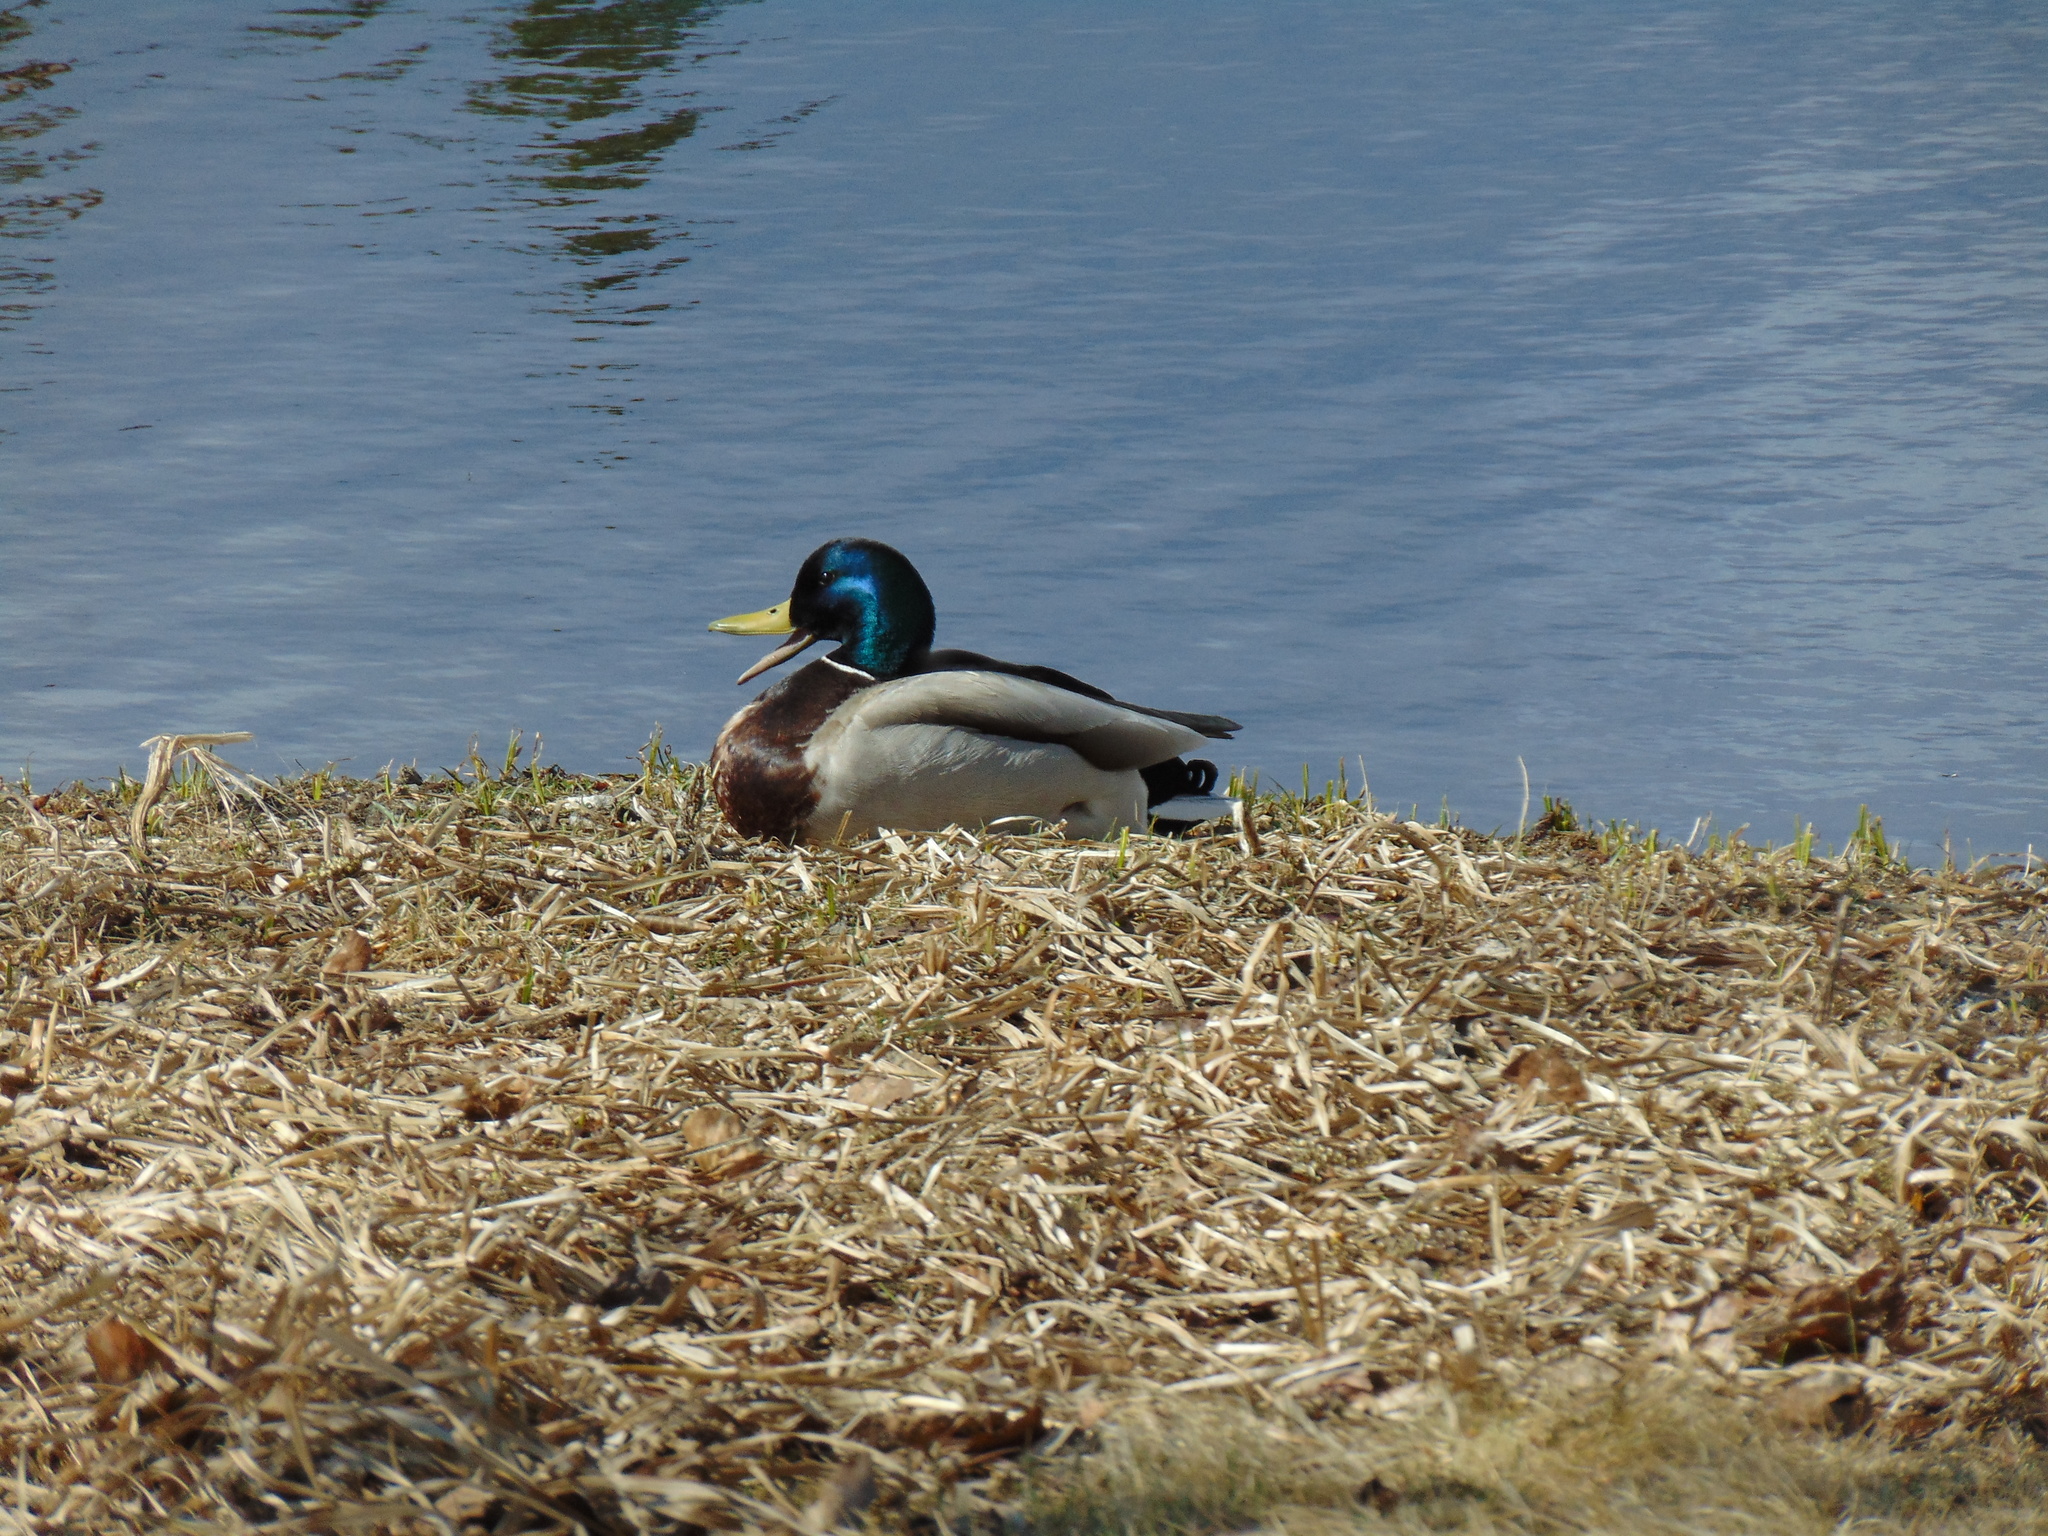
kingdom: Animalia
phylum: Chordata
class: Aves
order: Anseriformes
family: Anatidae
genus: Anas
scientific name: Anas platyrhynchos
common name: Mallard
